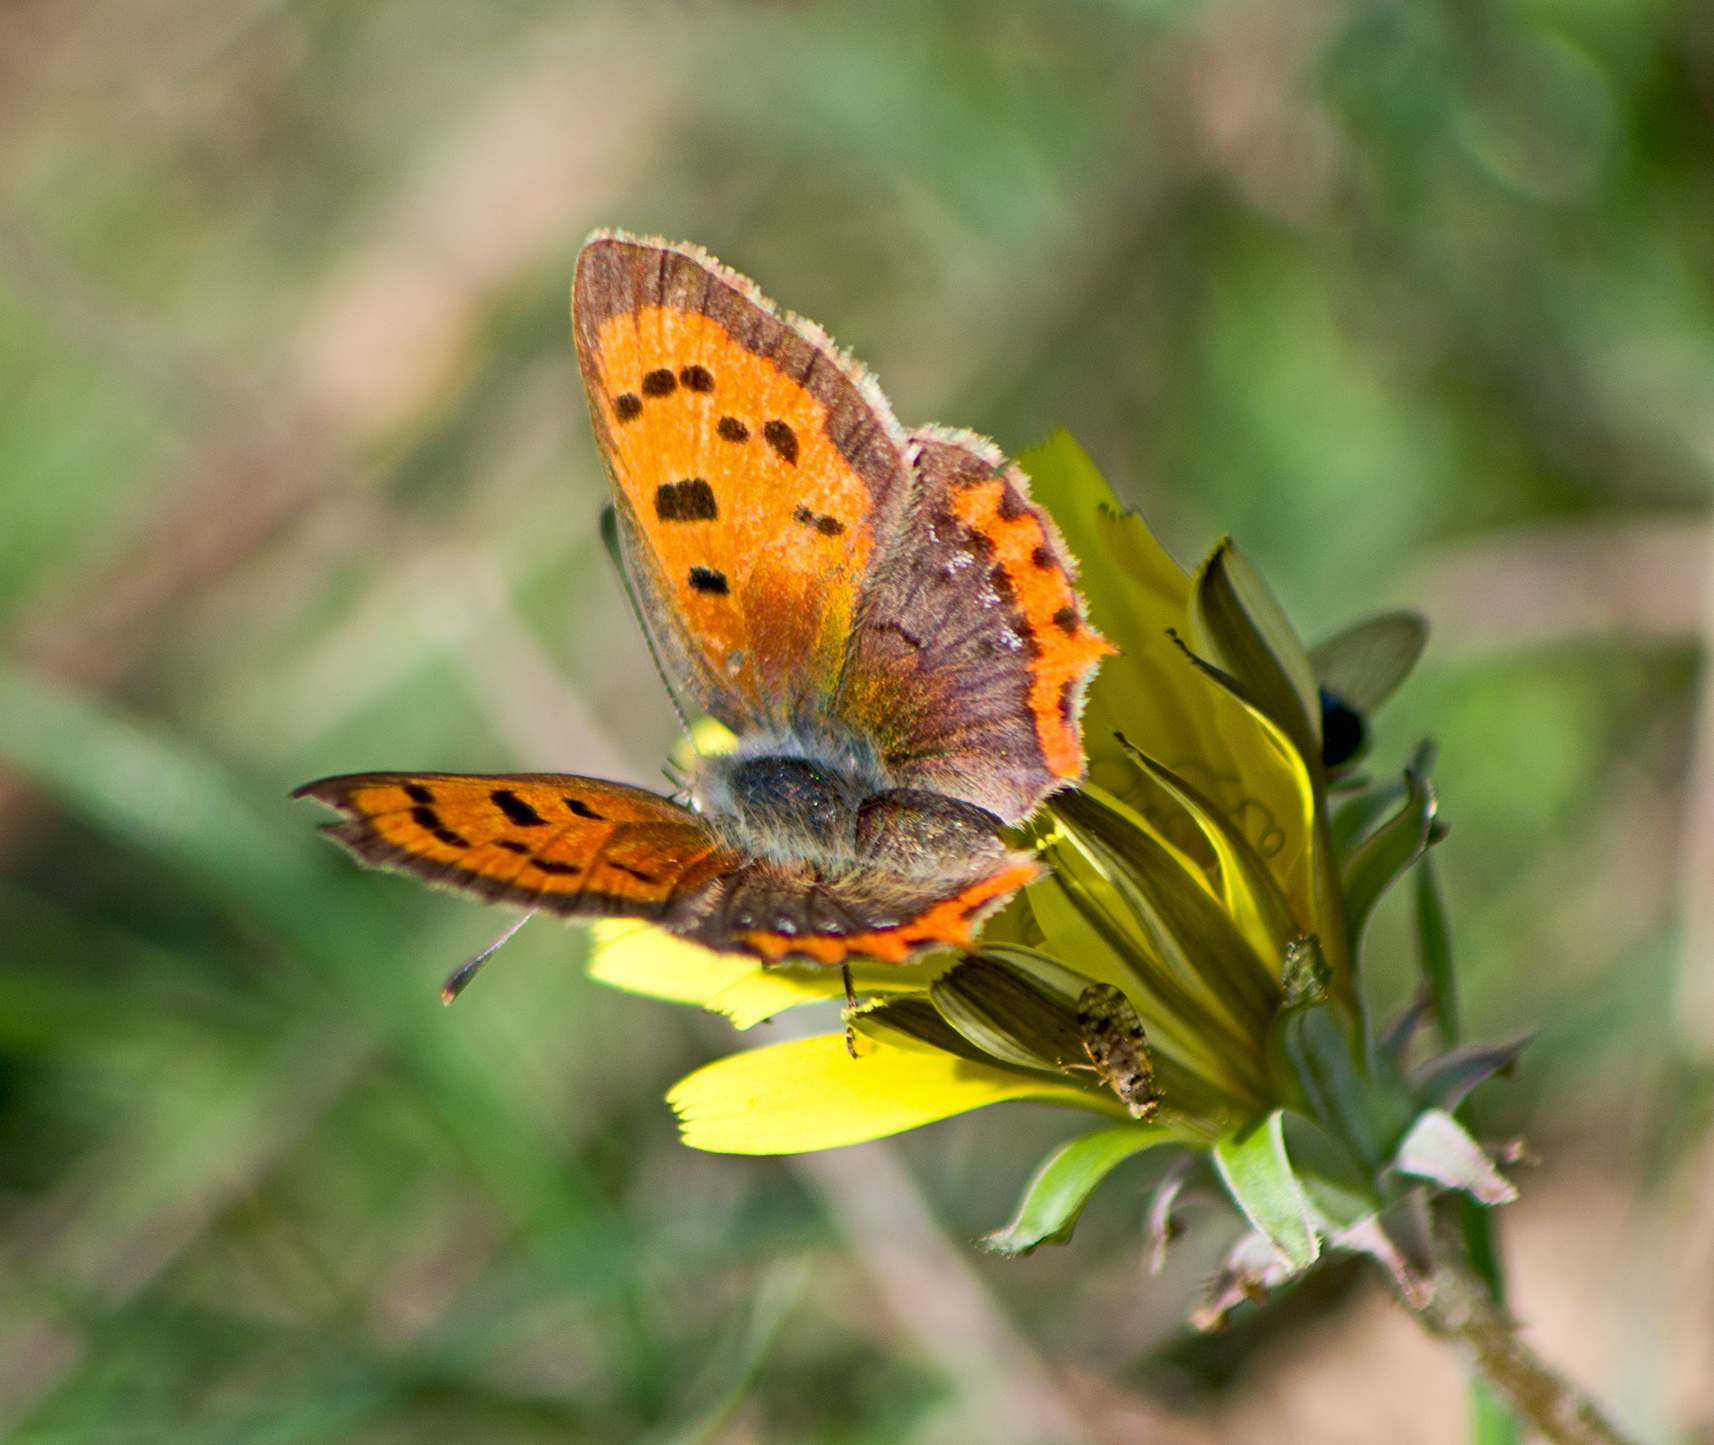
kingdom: Animalia
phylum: Arthropoda
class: Insecta
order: Lepidoptera
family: Lycaenidae
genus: Lycaena
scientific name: Lycaena phlaeas
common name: Small copper
